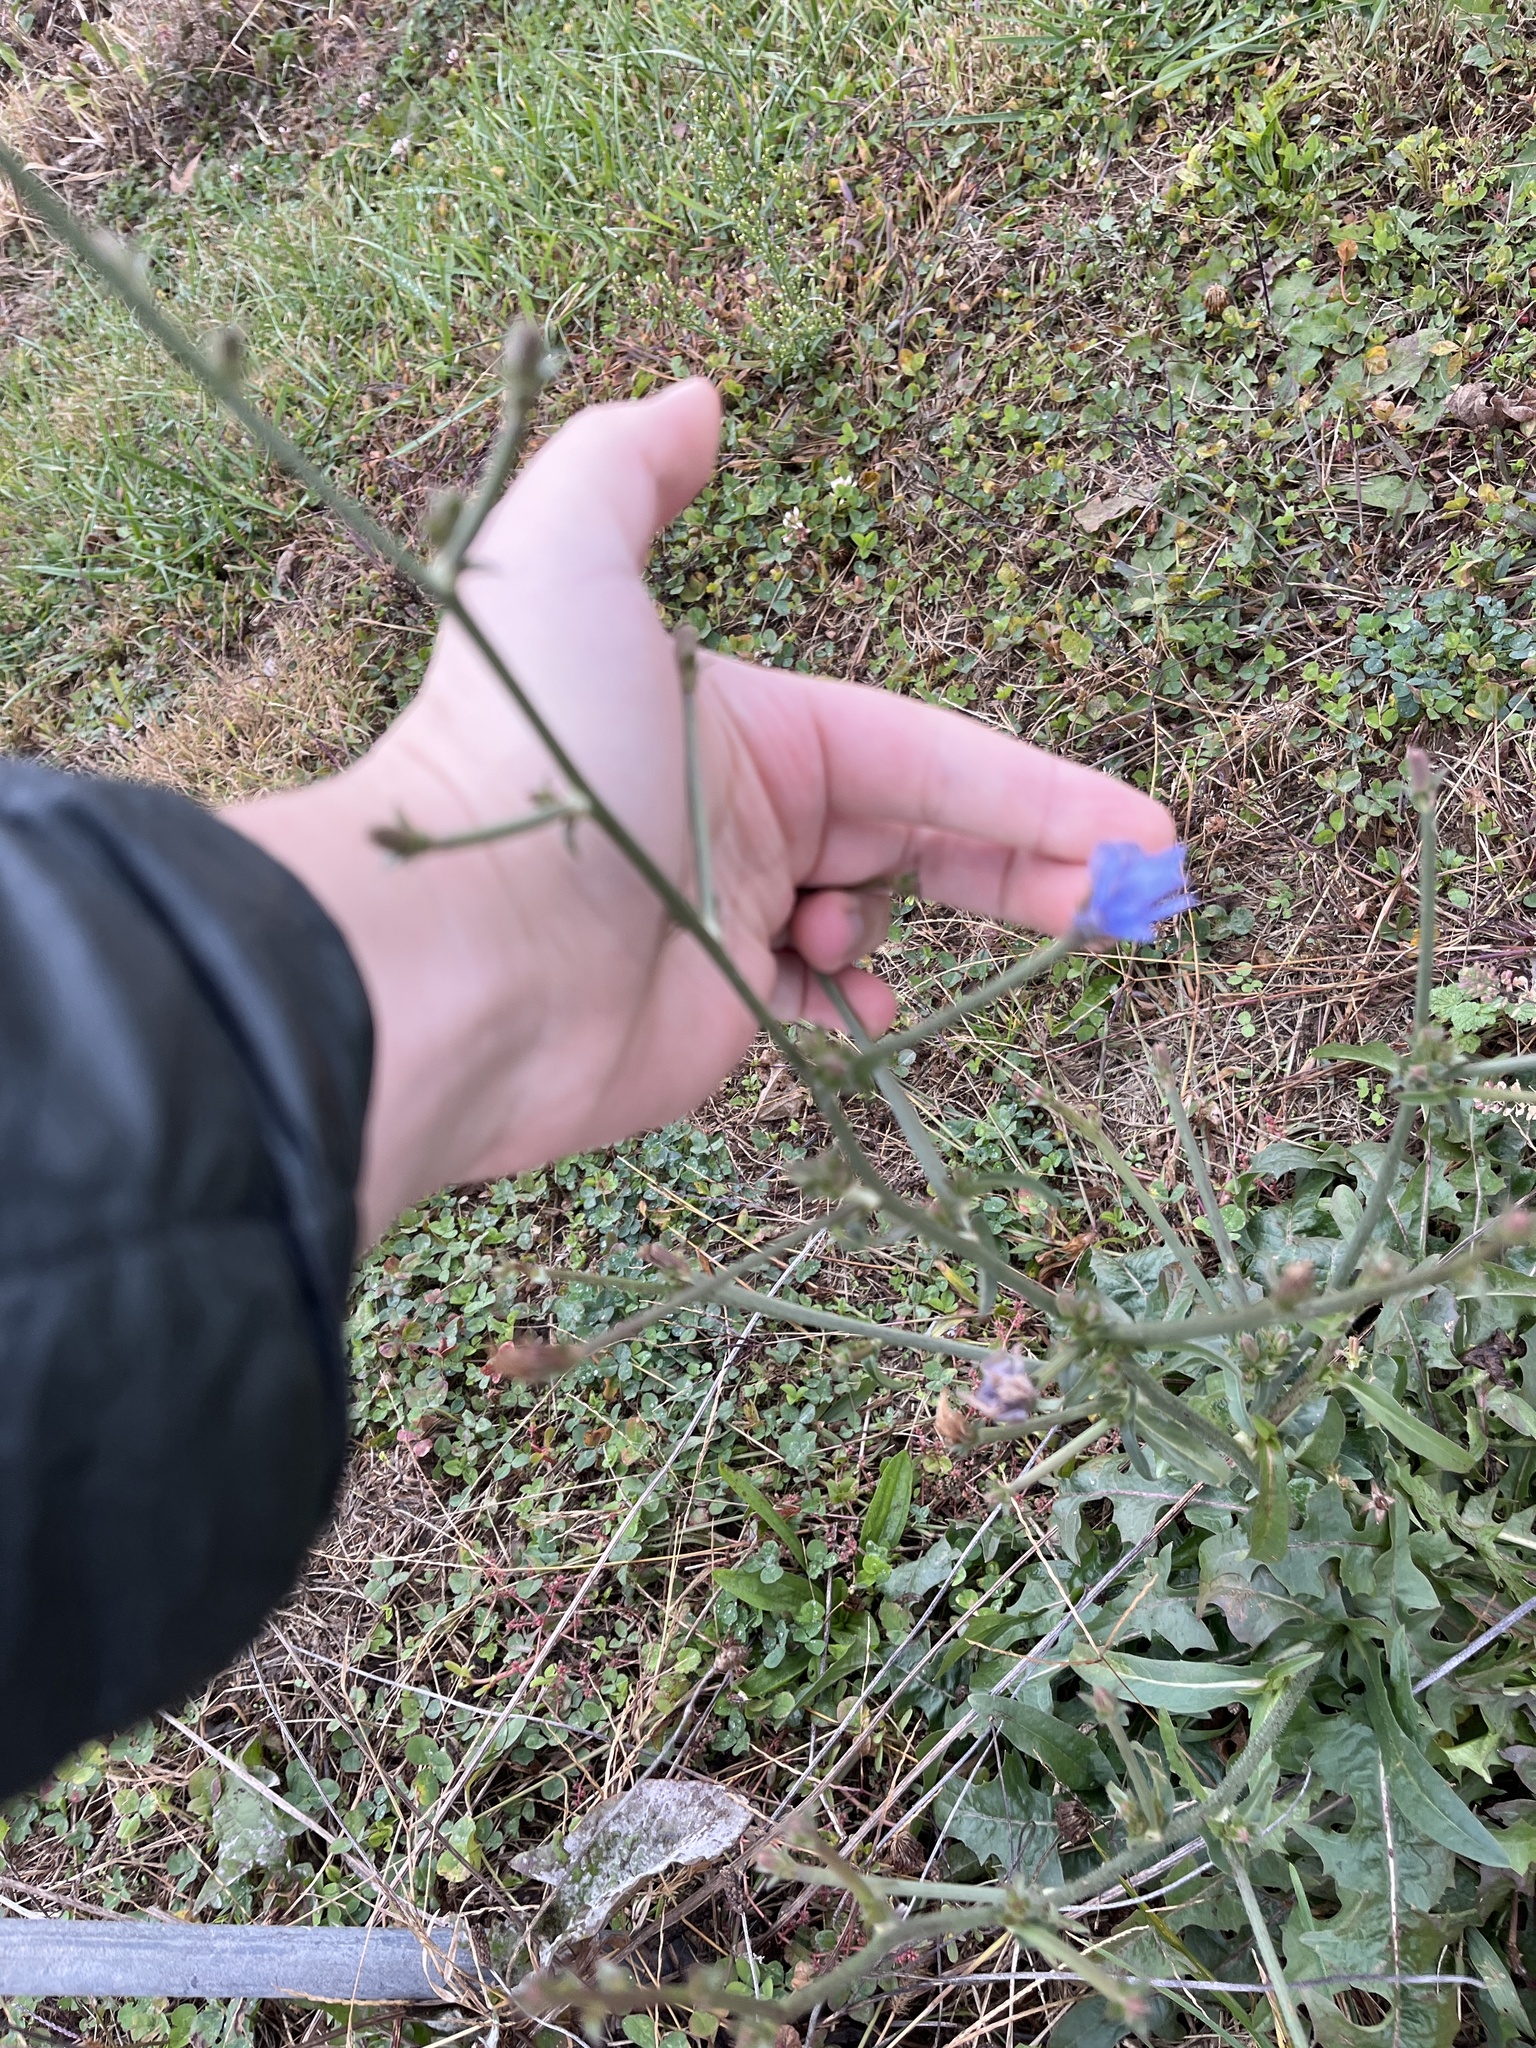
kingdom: Plantae
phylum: Tracheophyta
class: Magnoliopsida
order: Asterales
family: Asteraceae
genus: Cichorium
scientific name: Cichorium intybus
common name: Chicory
